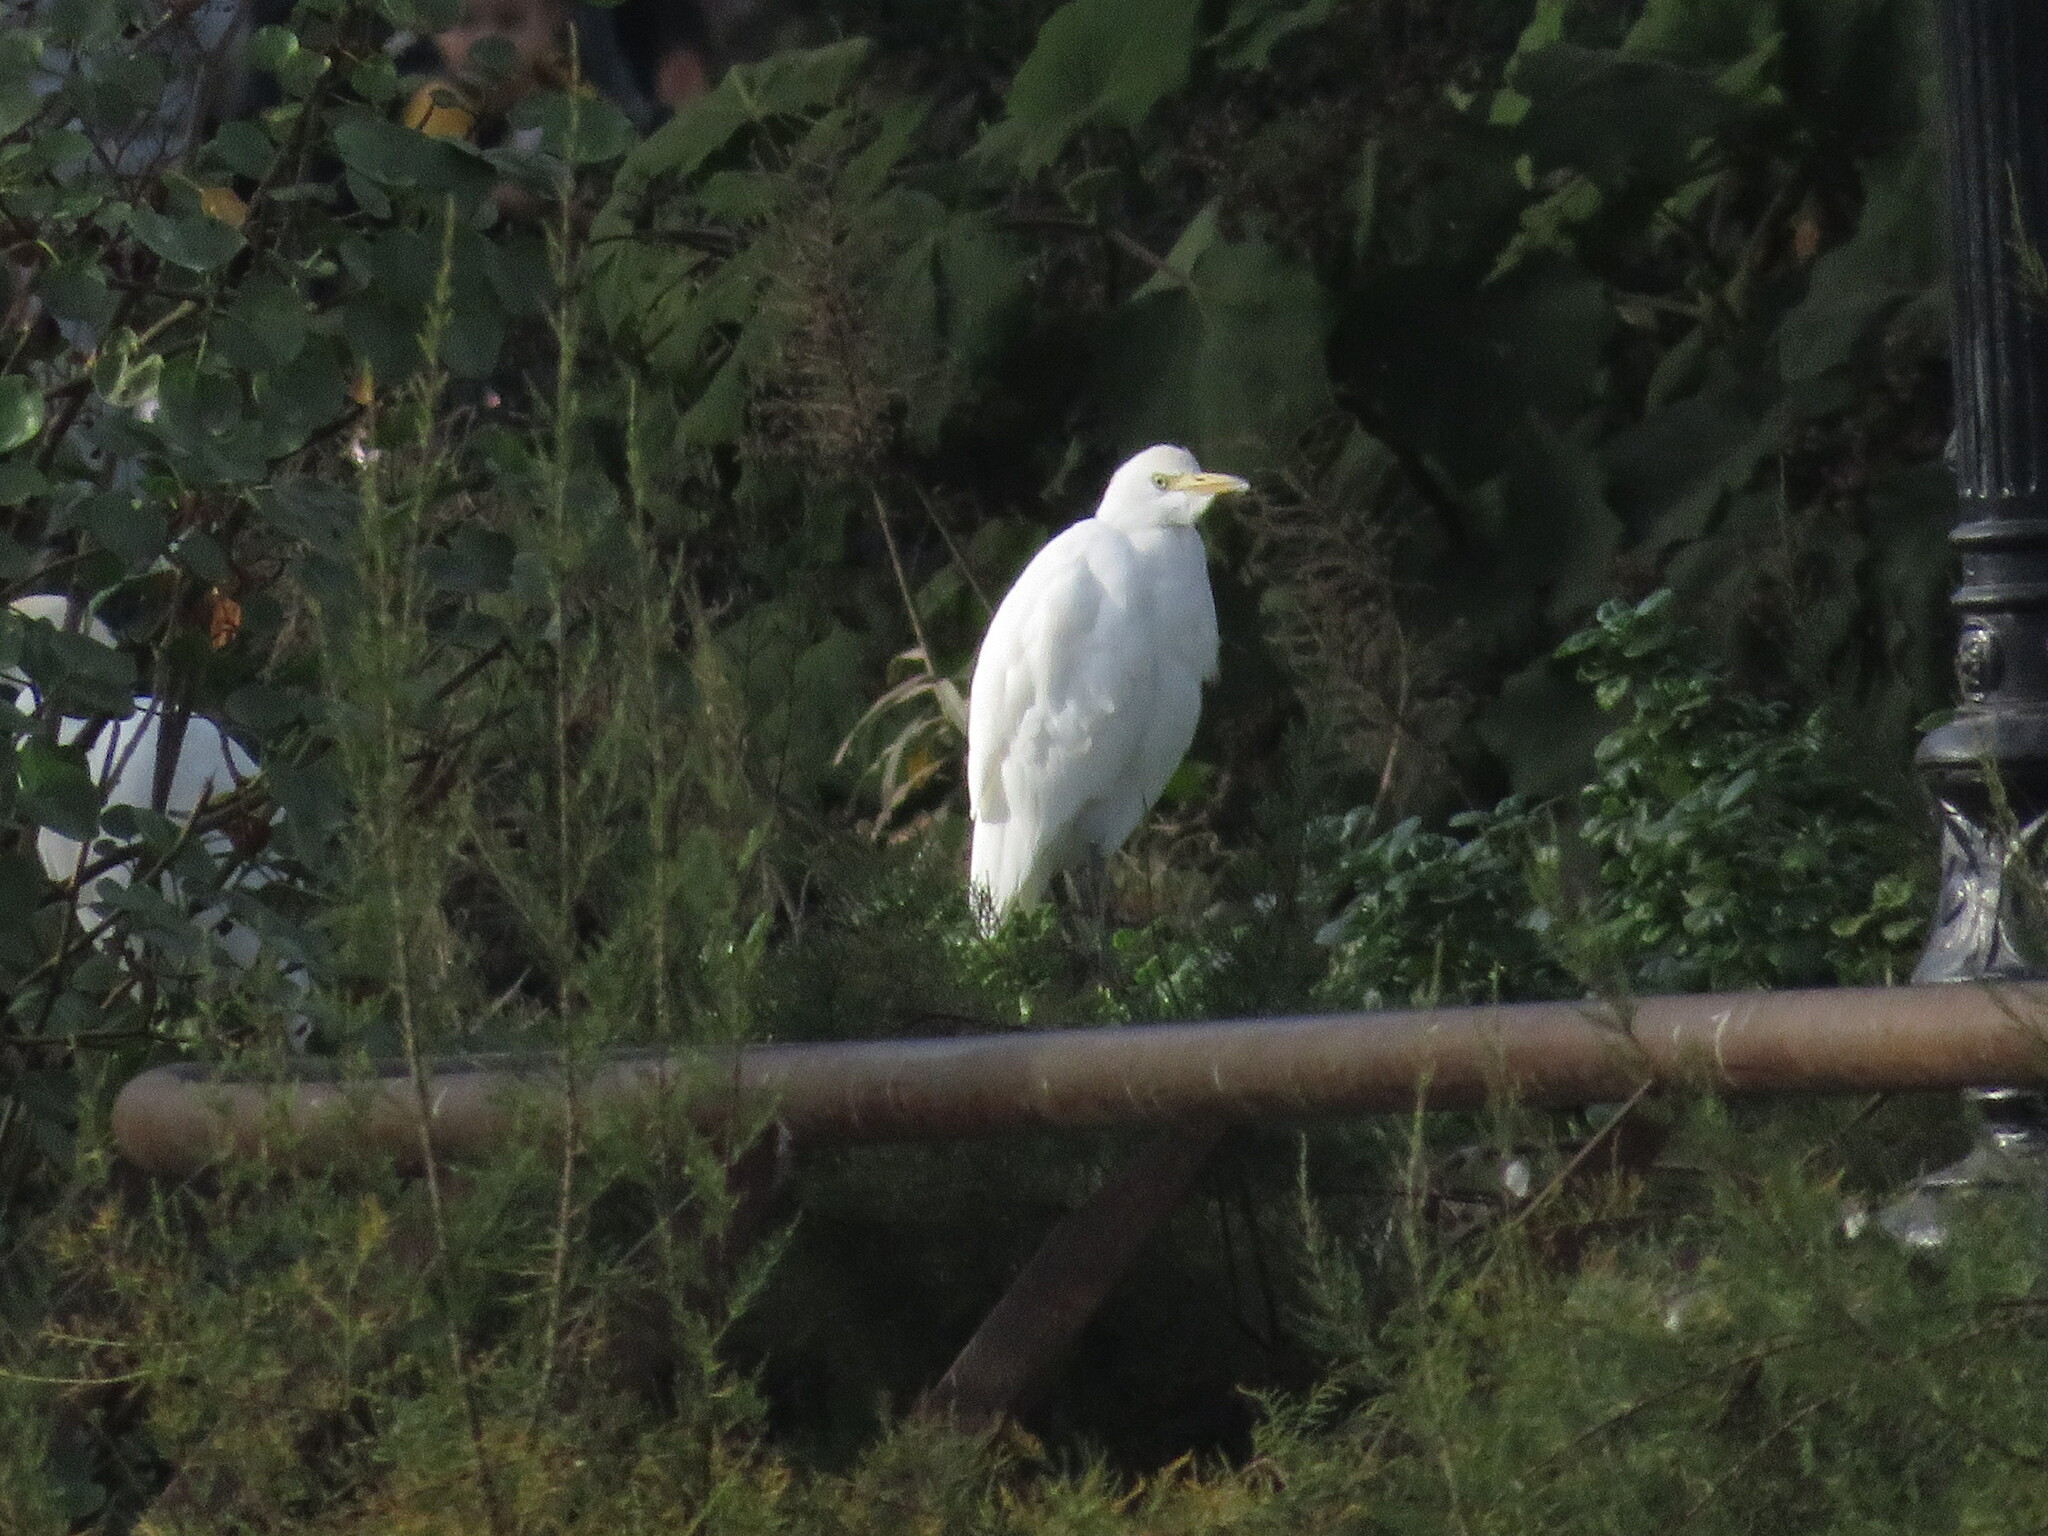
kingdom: Animalia
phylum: Chordata
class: Aves
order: Pelecaniformes
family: Ardeidae
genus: Bubulcus
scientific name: Bubulcus ibis
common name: Cattle egret
